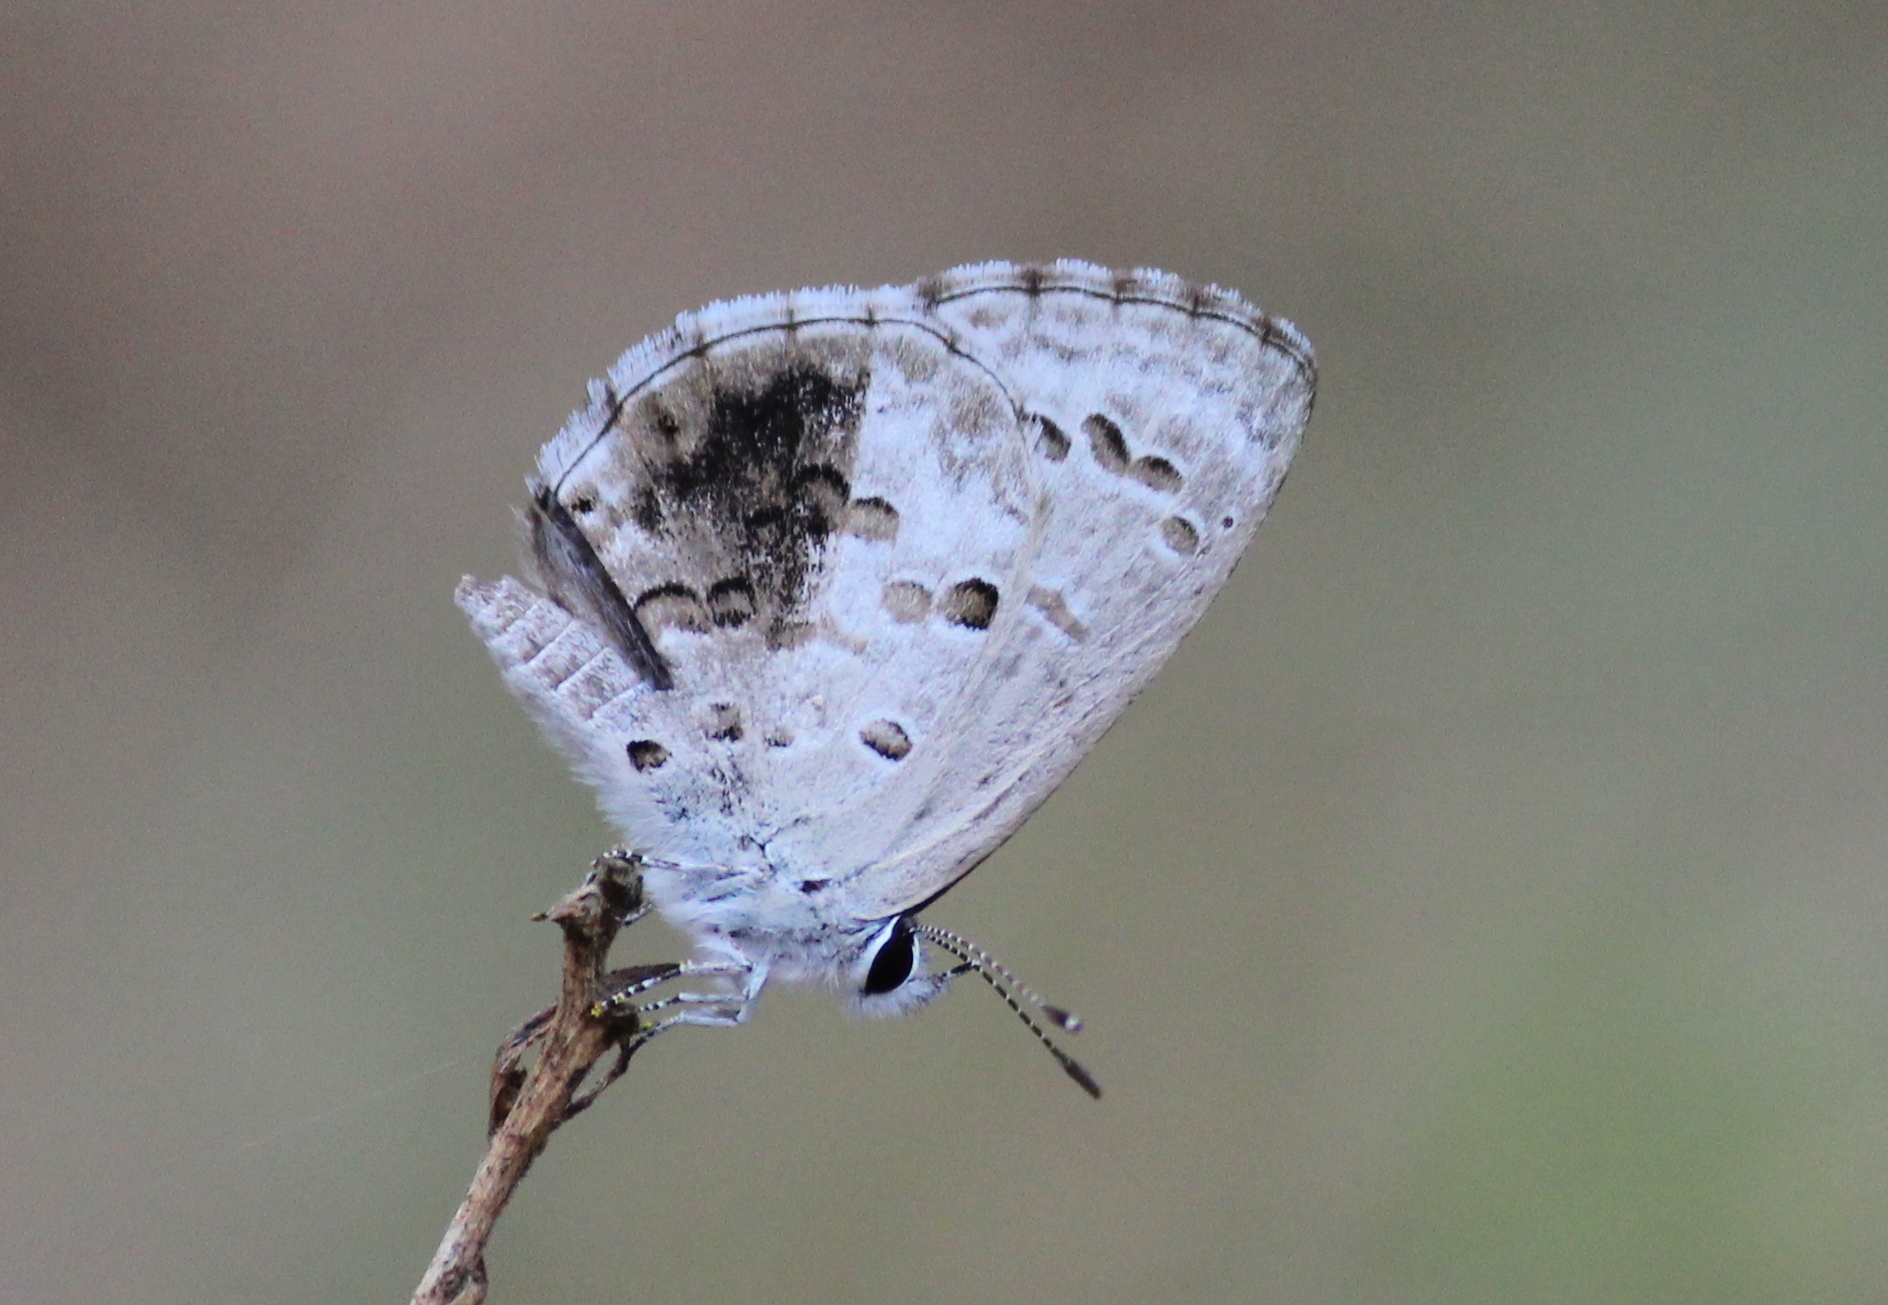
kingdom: Animalia
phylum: Arthropoda
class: Insecta
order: Lepidoptera
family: Lycaenidae
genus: Chilades
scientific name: Chilades laius
